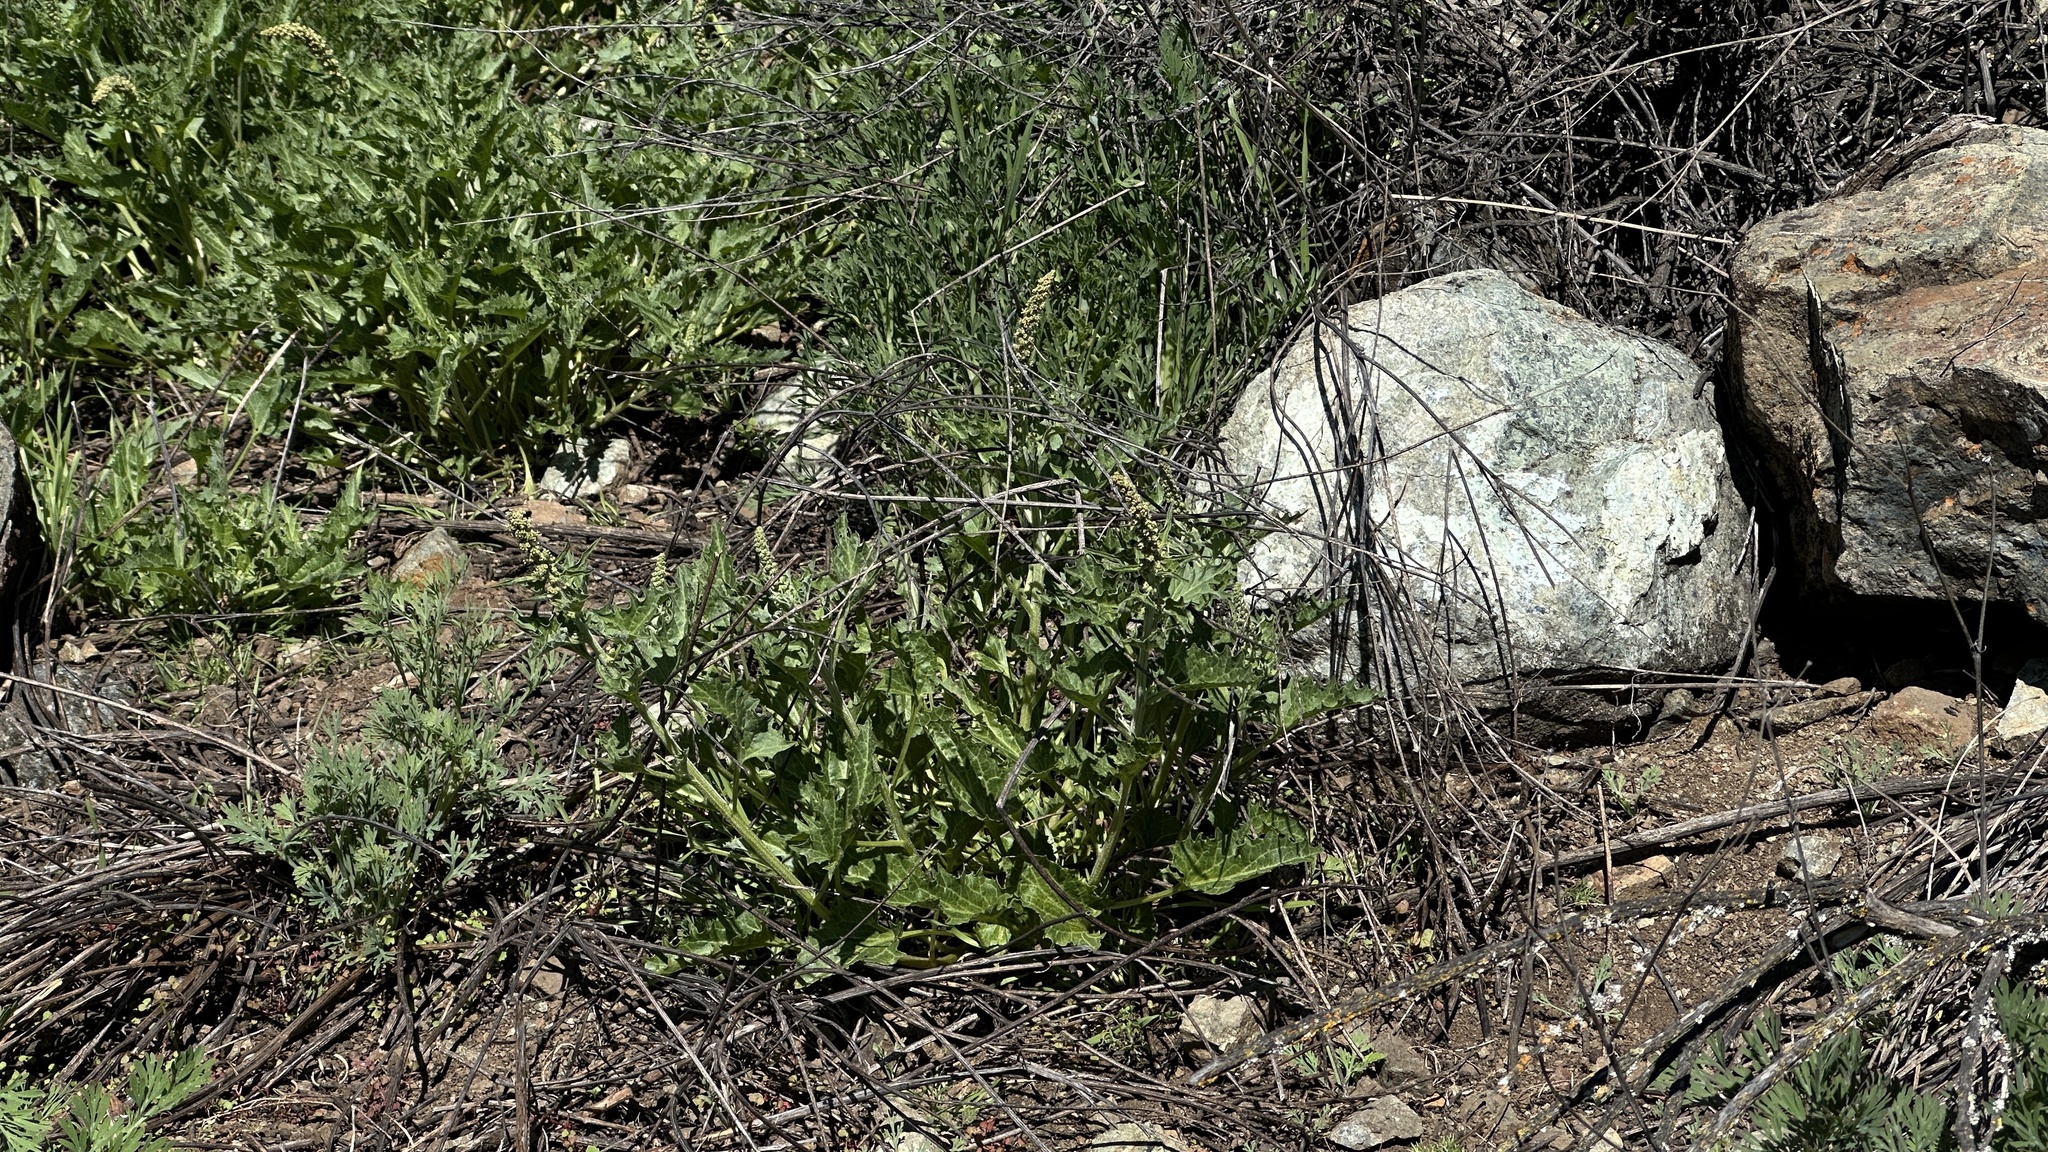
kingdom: Plantae
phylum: Tracheophyta
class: Magnoliopsida
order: Caryophyllales
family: Amaranthaceae
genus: Blitum
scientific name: Blitum californicum
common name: California goosefoot
